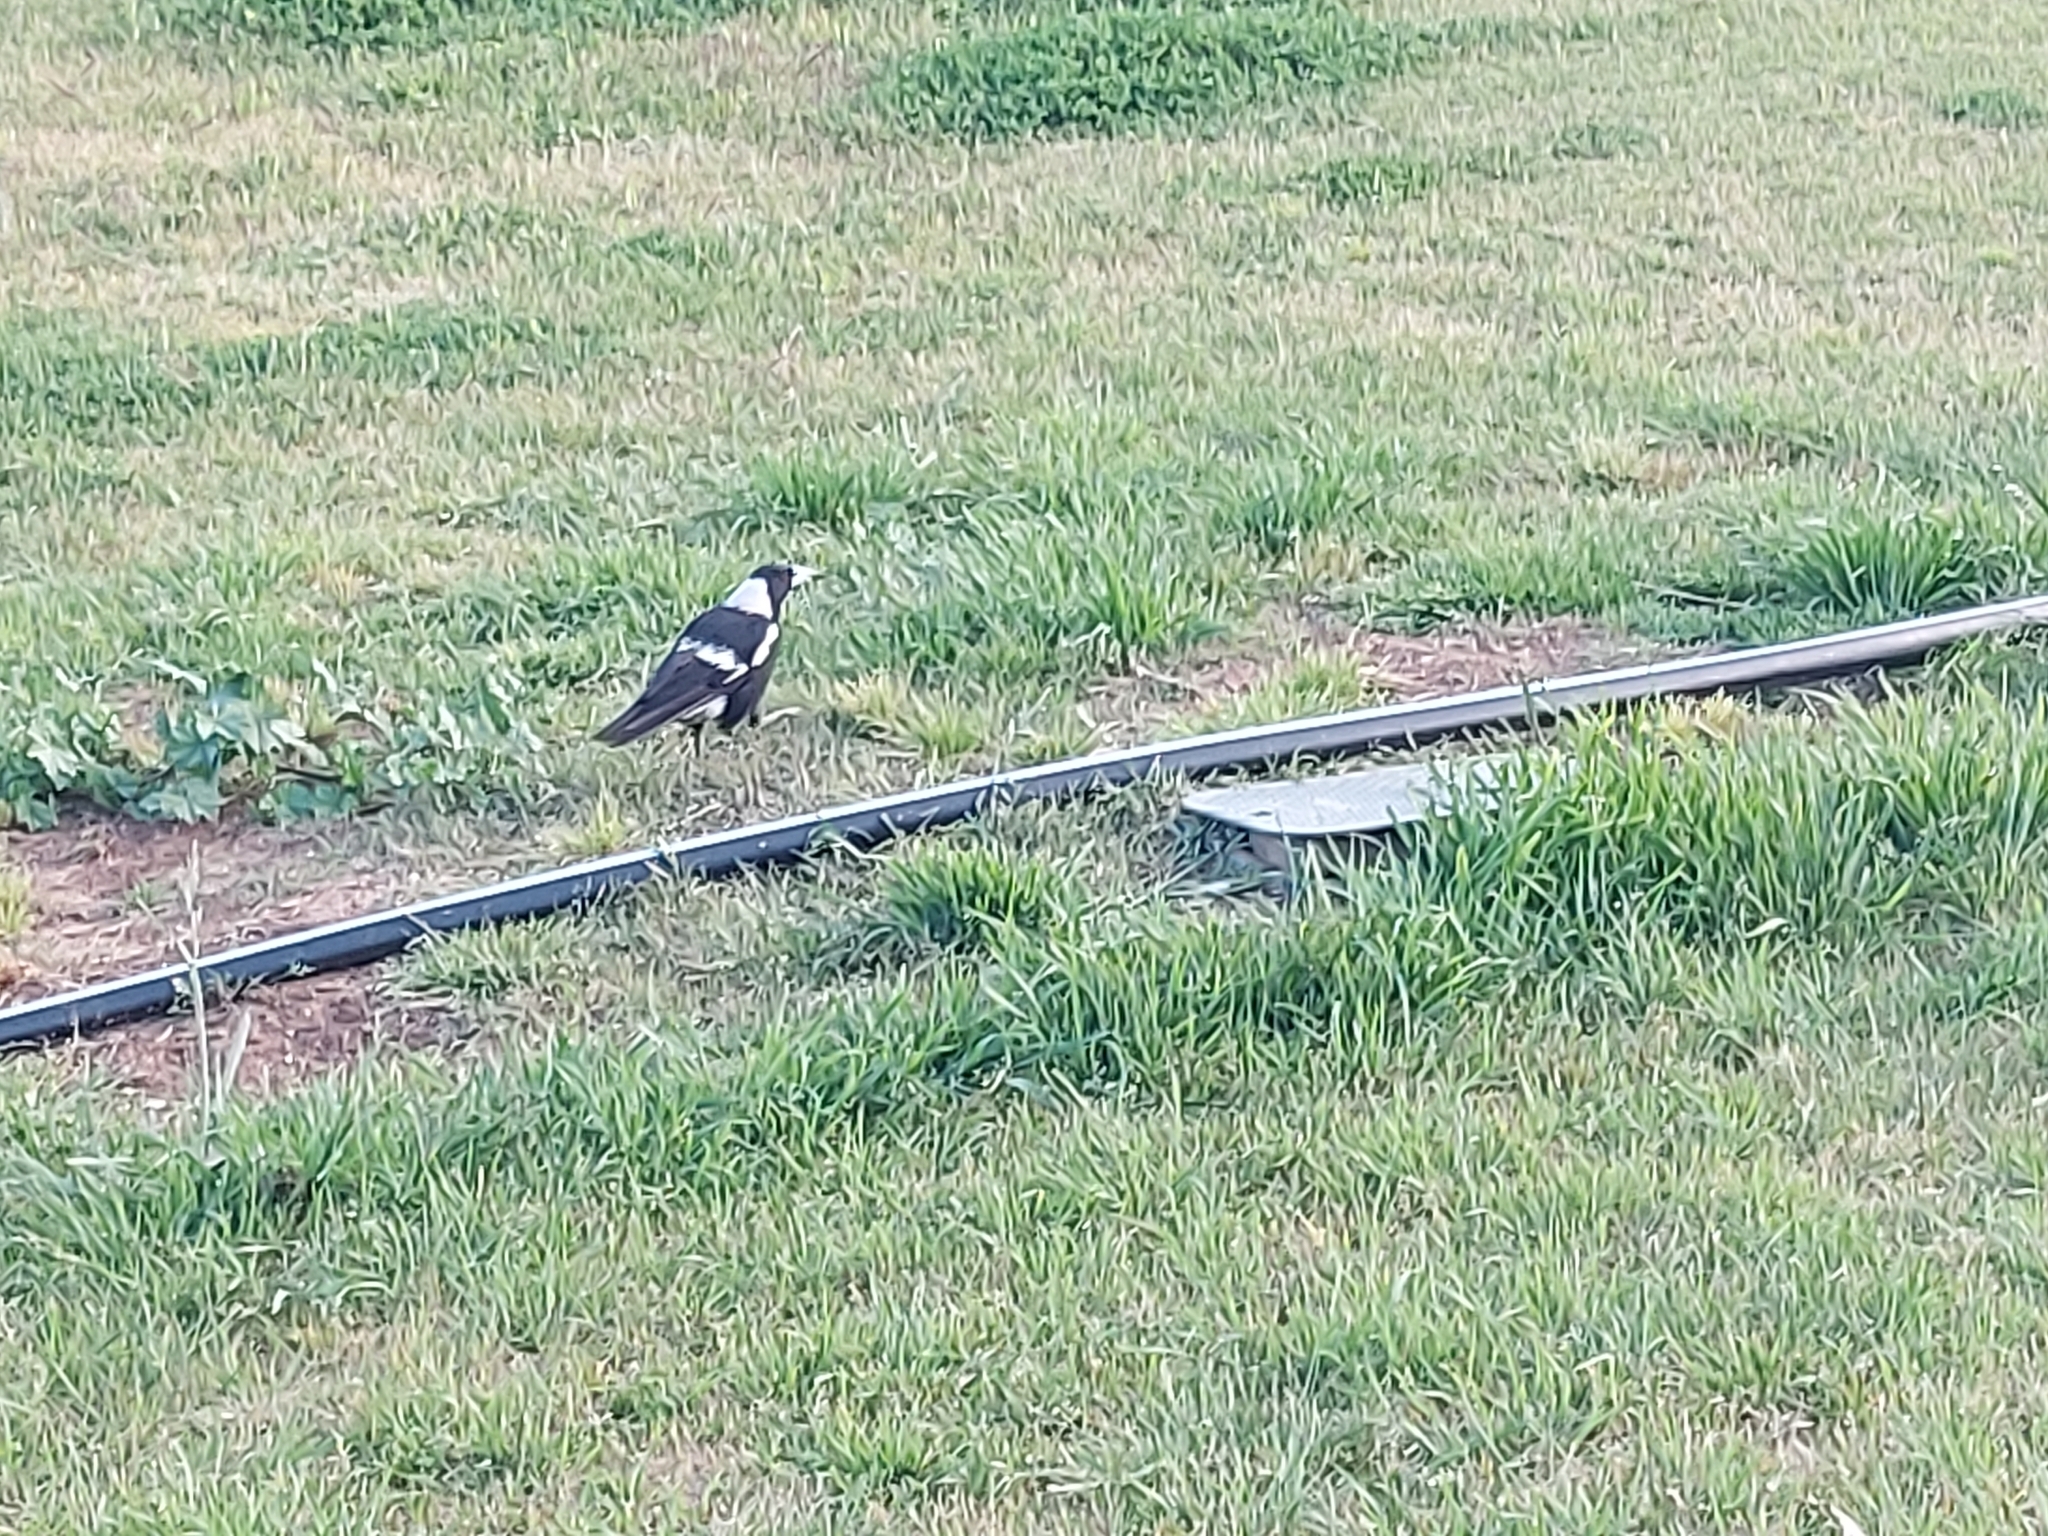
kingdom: Animalia
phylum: Chordata
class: Aves
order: Passeriformes
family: Cracticidae
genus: Gymnorhina
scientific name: Gymnorhina tibicen
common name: Australian magpie
